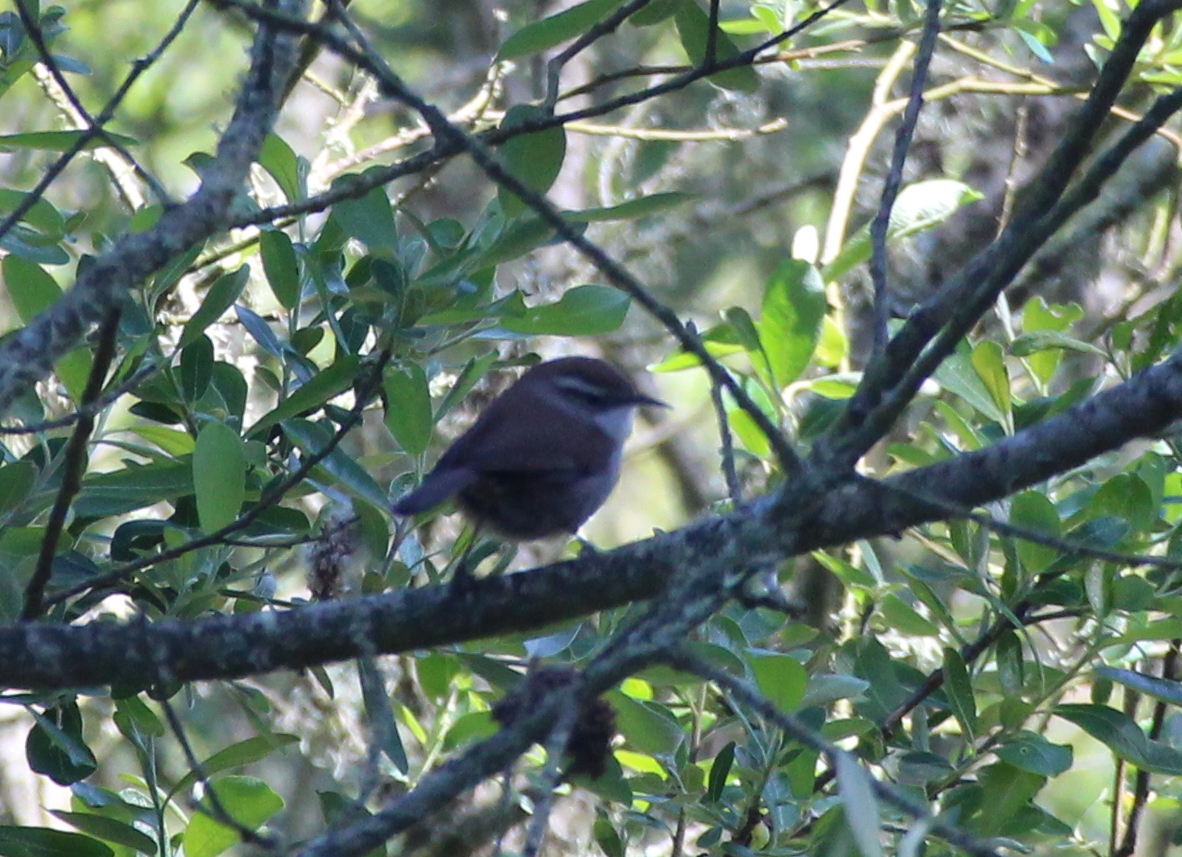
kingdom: Animalia
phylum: Chordata
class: Aves
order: Passeriformes
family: Troglodytidae
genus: Thryomanes
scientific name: Thryomanes bewickii
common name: Bewick's wren
